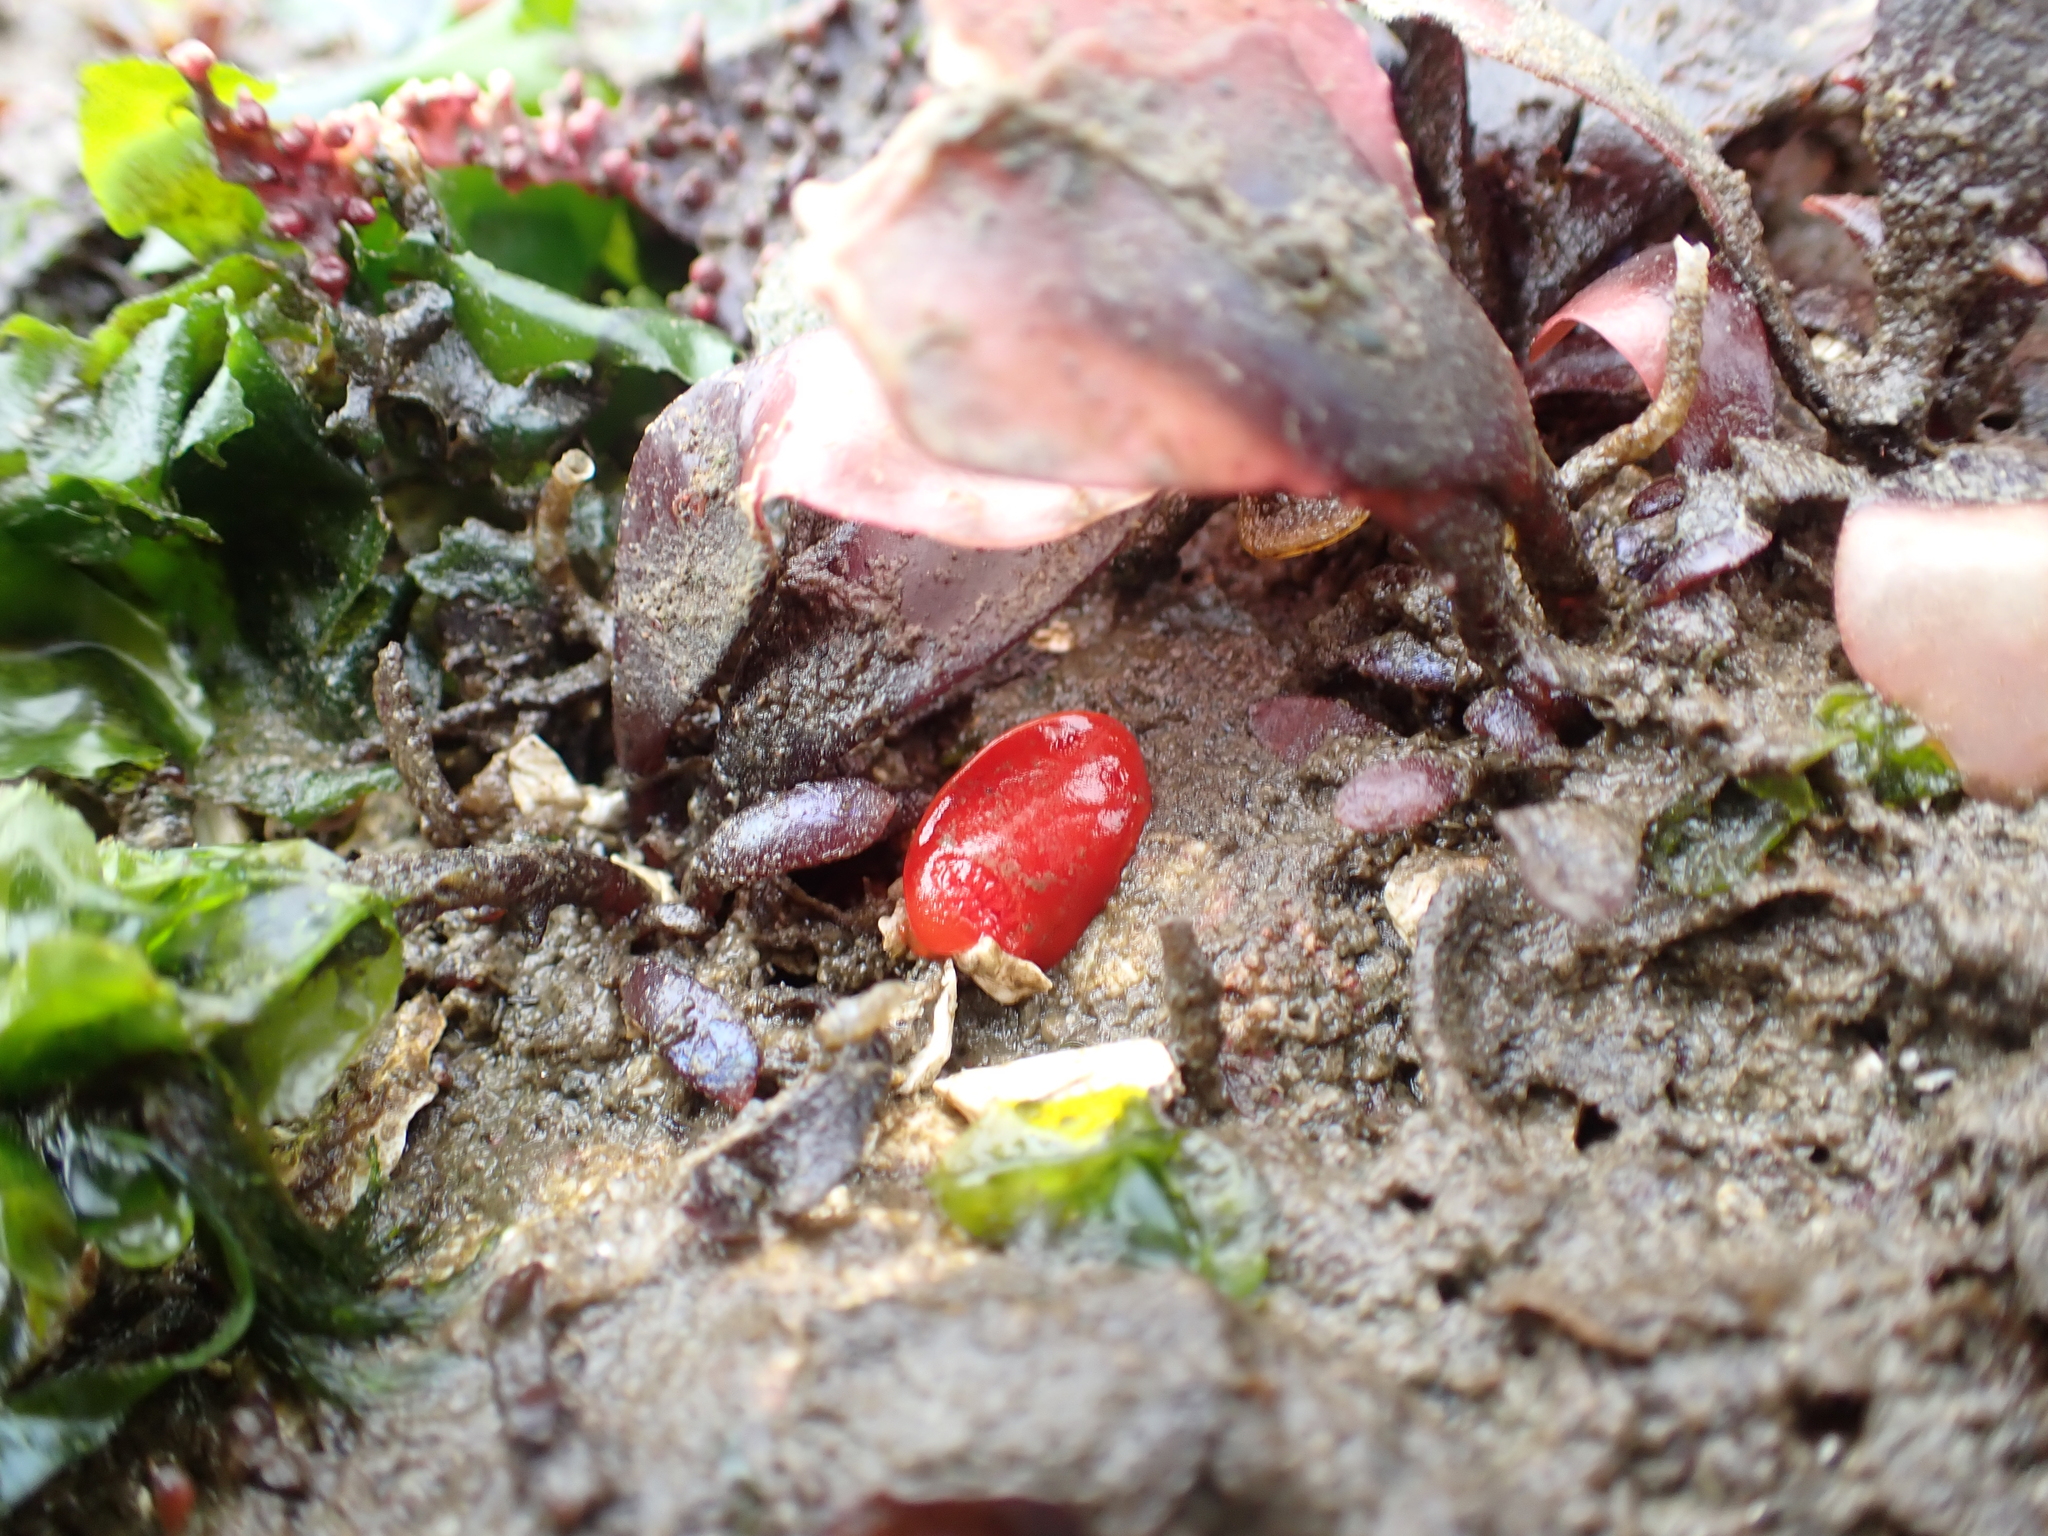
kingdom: Animalia
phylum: Mollusca
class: Gastropoda
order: Nudibranchia
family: Discodorididae
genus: Rostanga
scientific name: Rostanga pulchra
